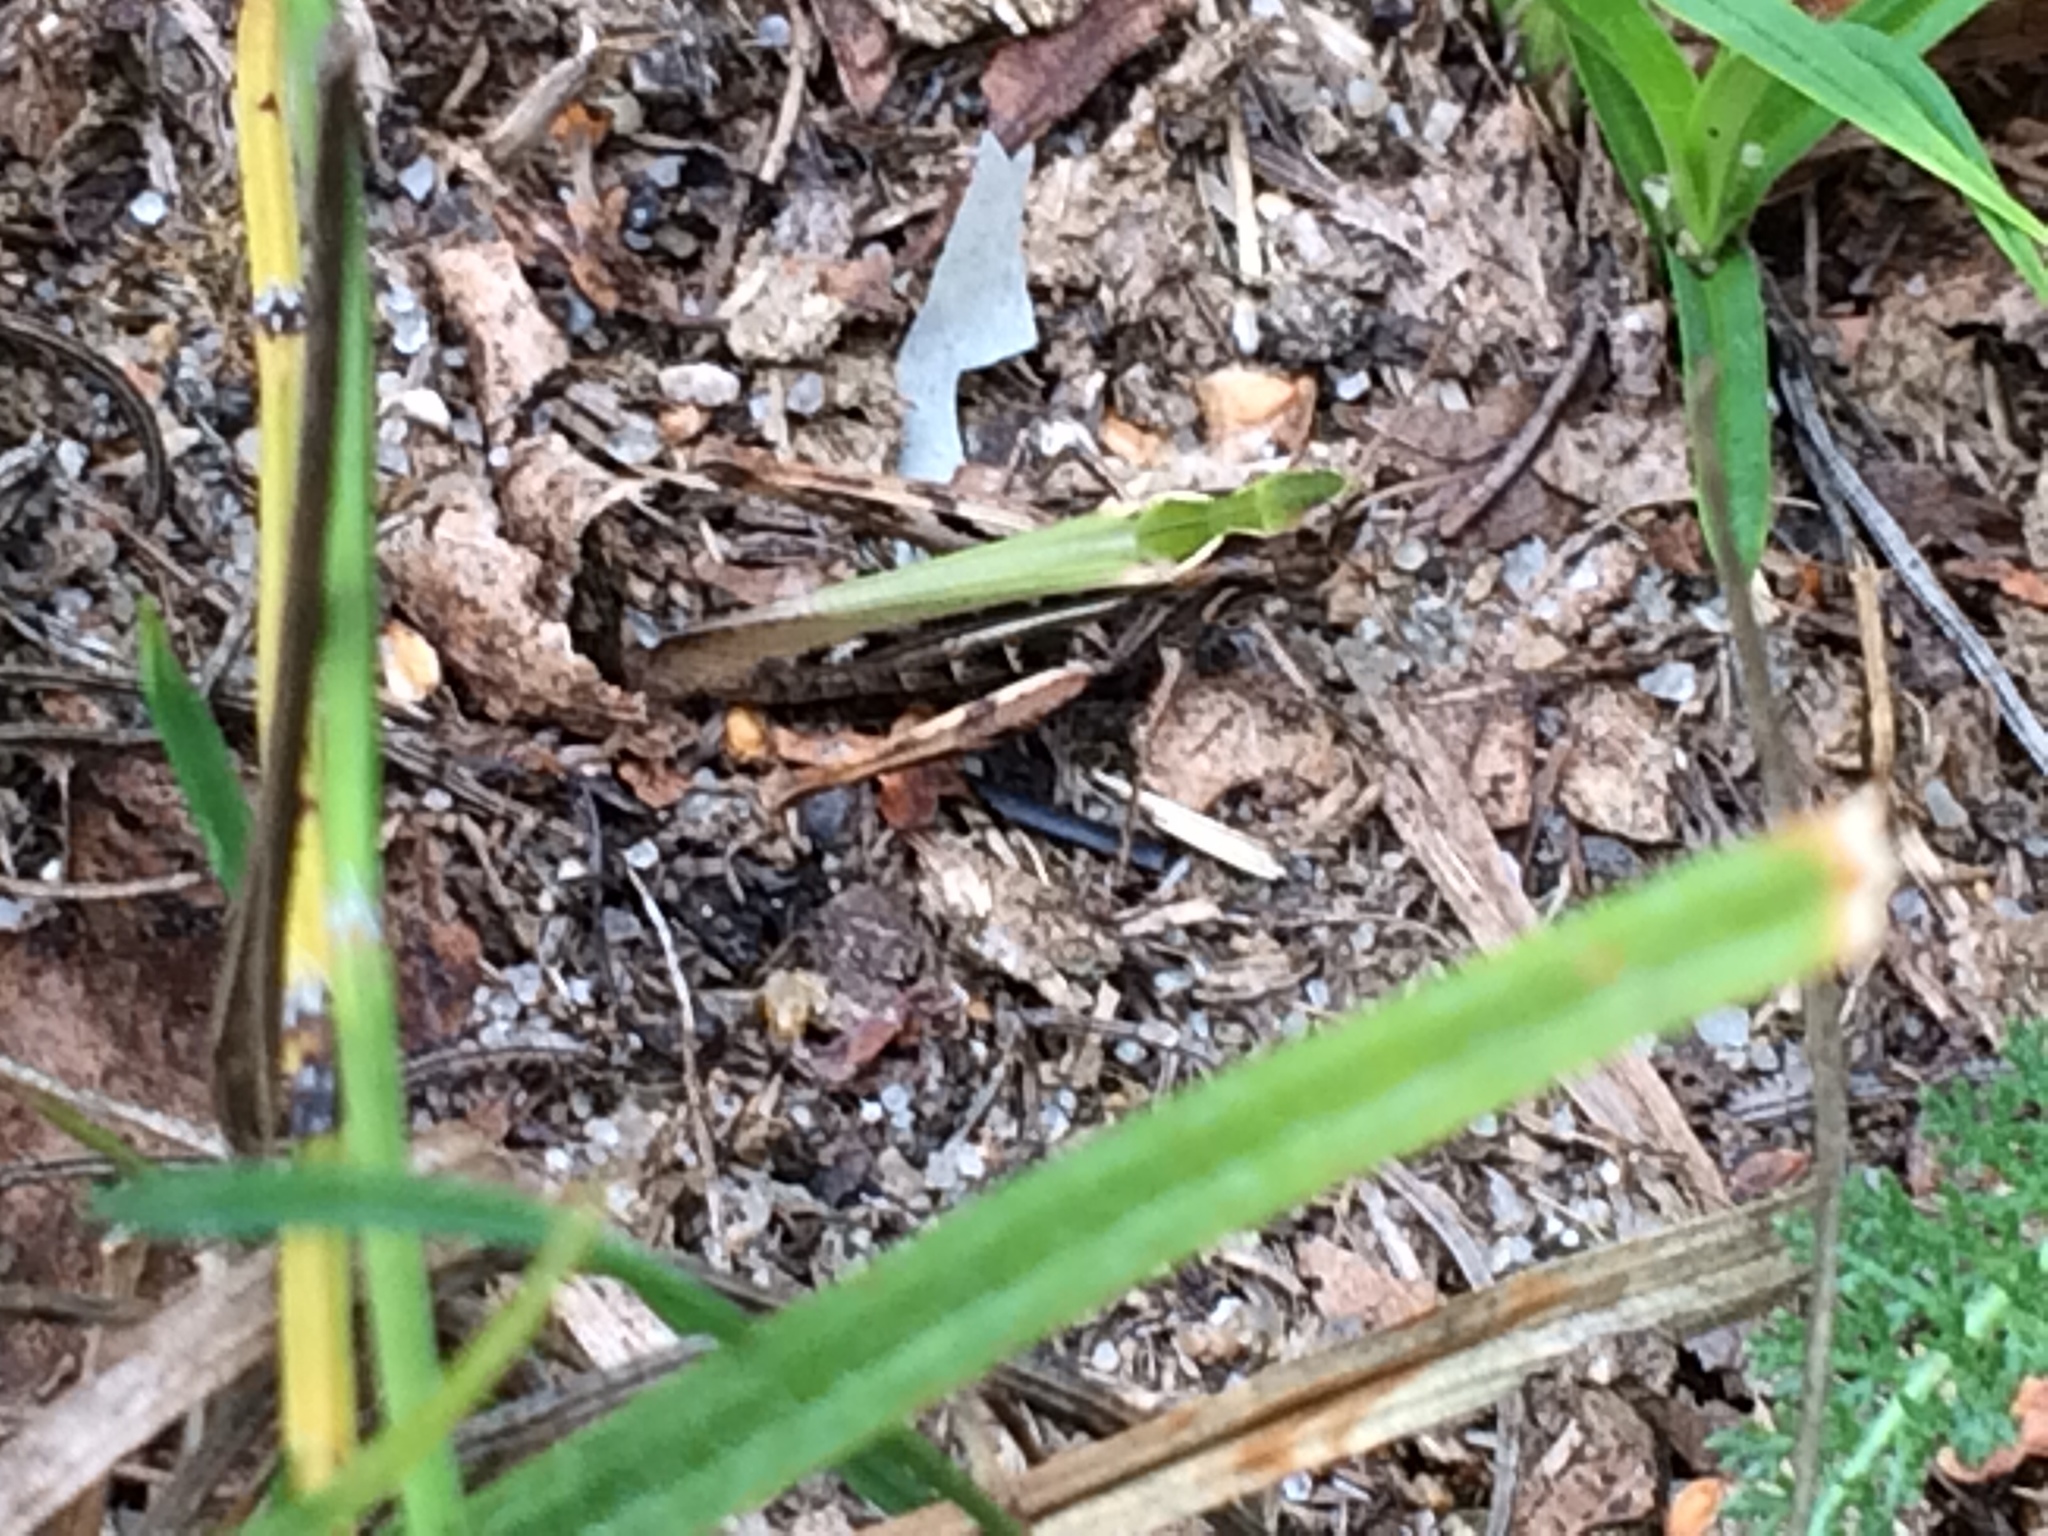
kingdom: Animalia
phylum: Arthropoda
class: Insecta
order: Orthoptera
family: Acrididae
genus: Omocestus
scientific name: Omocestus viridulus
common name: Common green grasshopper
